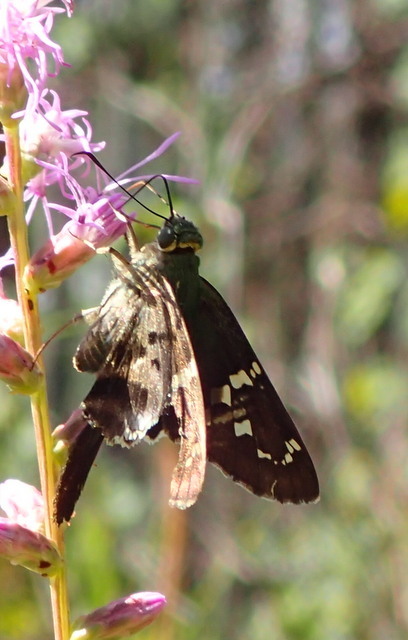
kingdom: Animalia
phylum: Arthropoda
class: Insecta
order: Lepidoptera
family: Hesperiidae
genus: Urbanus
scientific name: Urbanus proteus
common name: Long-tailed skipper
